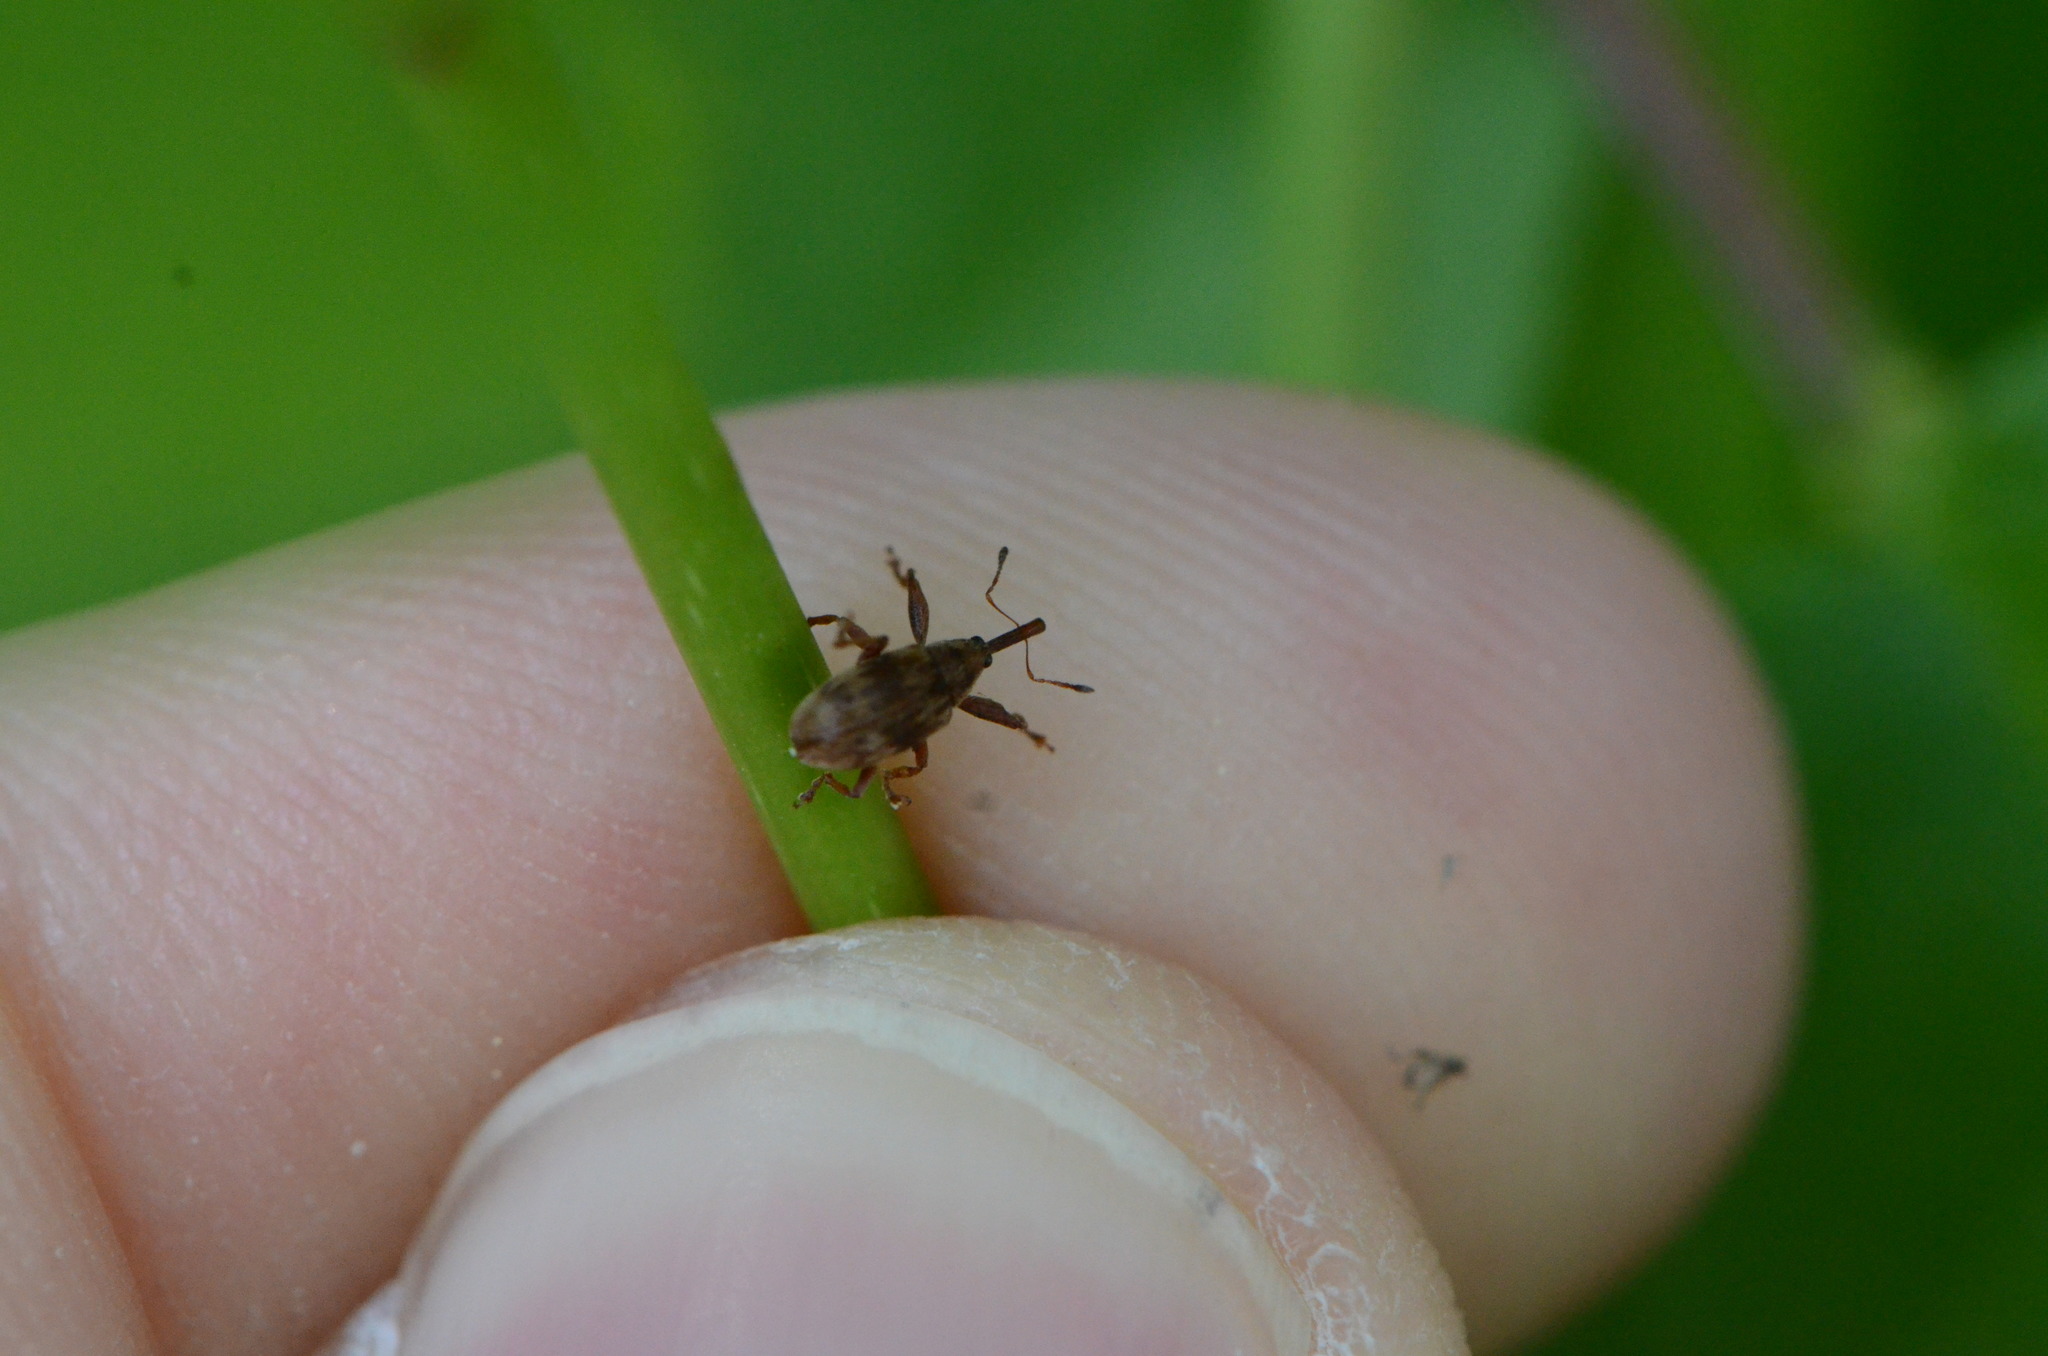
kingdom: Animalia
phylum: Arthropoda
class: Insecta
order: Coleoptera
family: Curculionidae
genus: Anthonomus
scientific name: Anthonomus rectirostris
